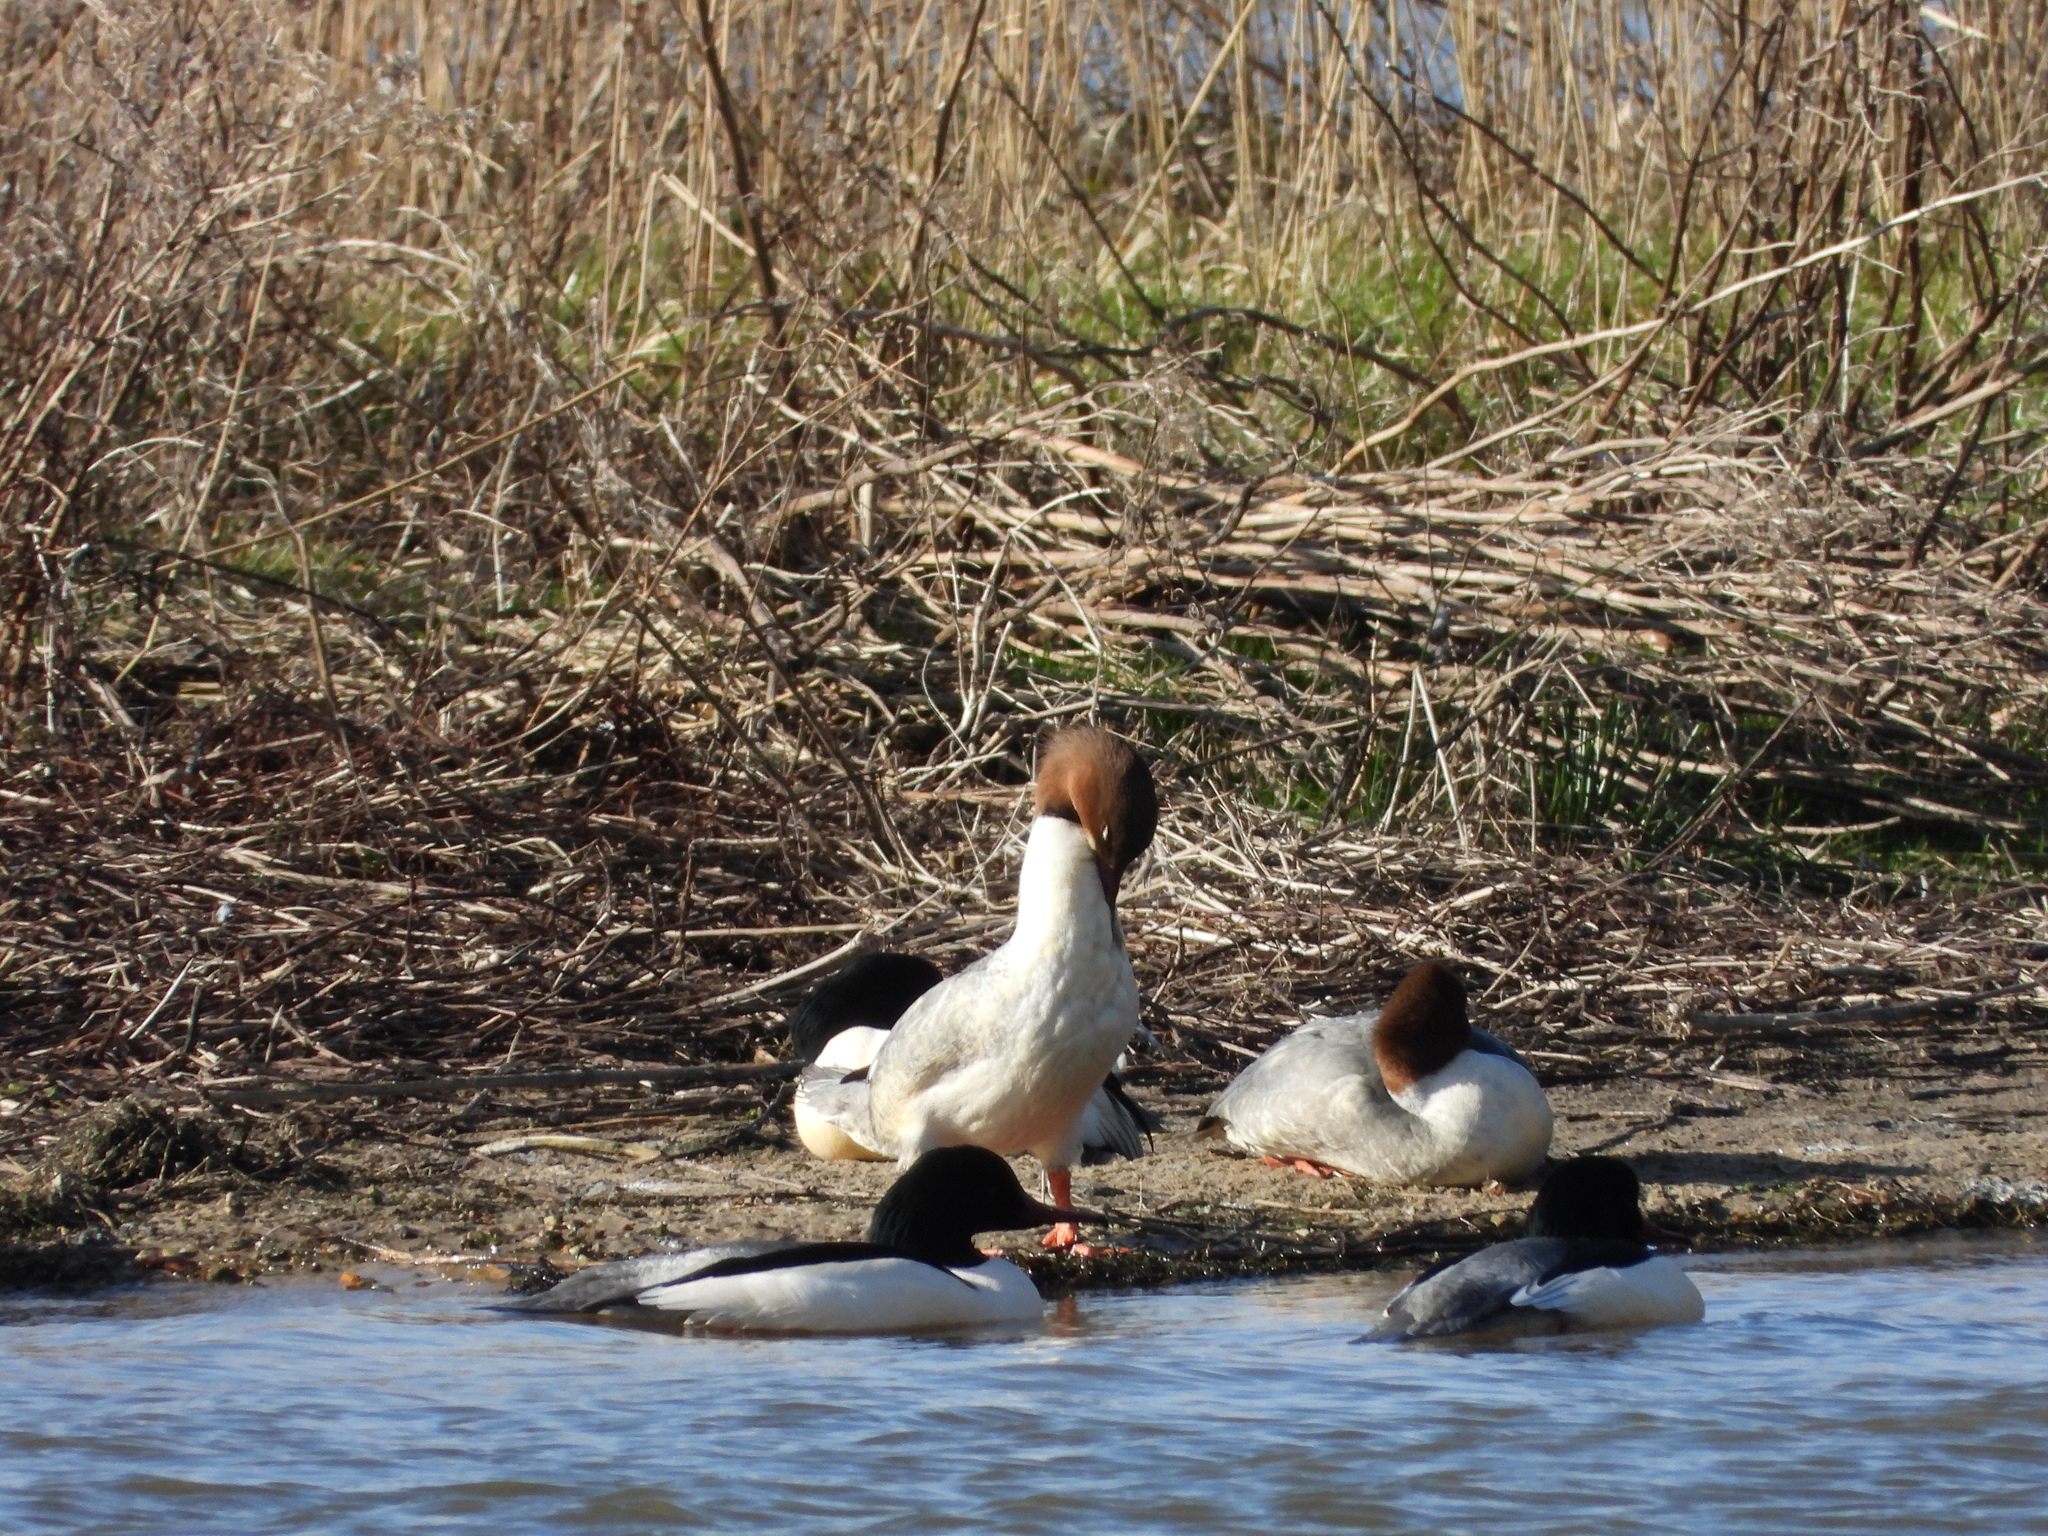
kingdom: Animalia
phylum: Chordata
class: Aves
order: Anseriformes
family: Anatidae
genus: Mergus
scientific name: Mergus merganser
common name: Common merganser
